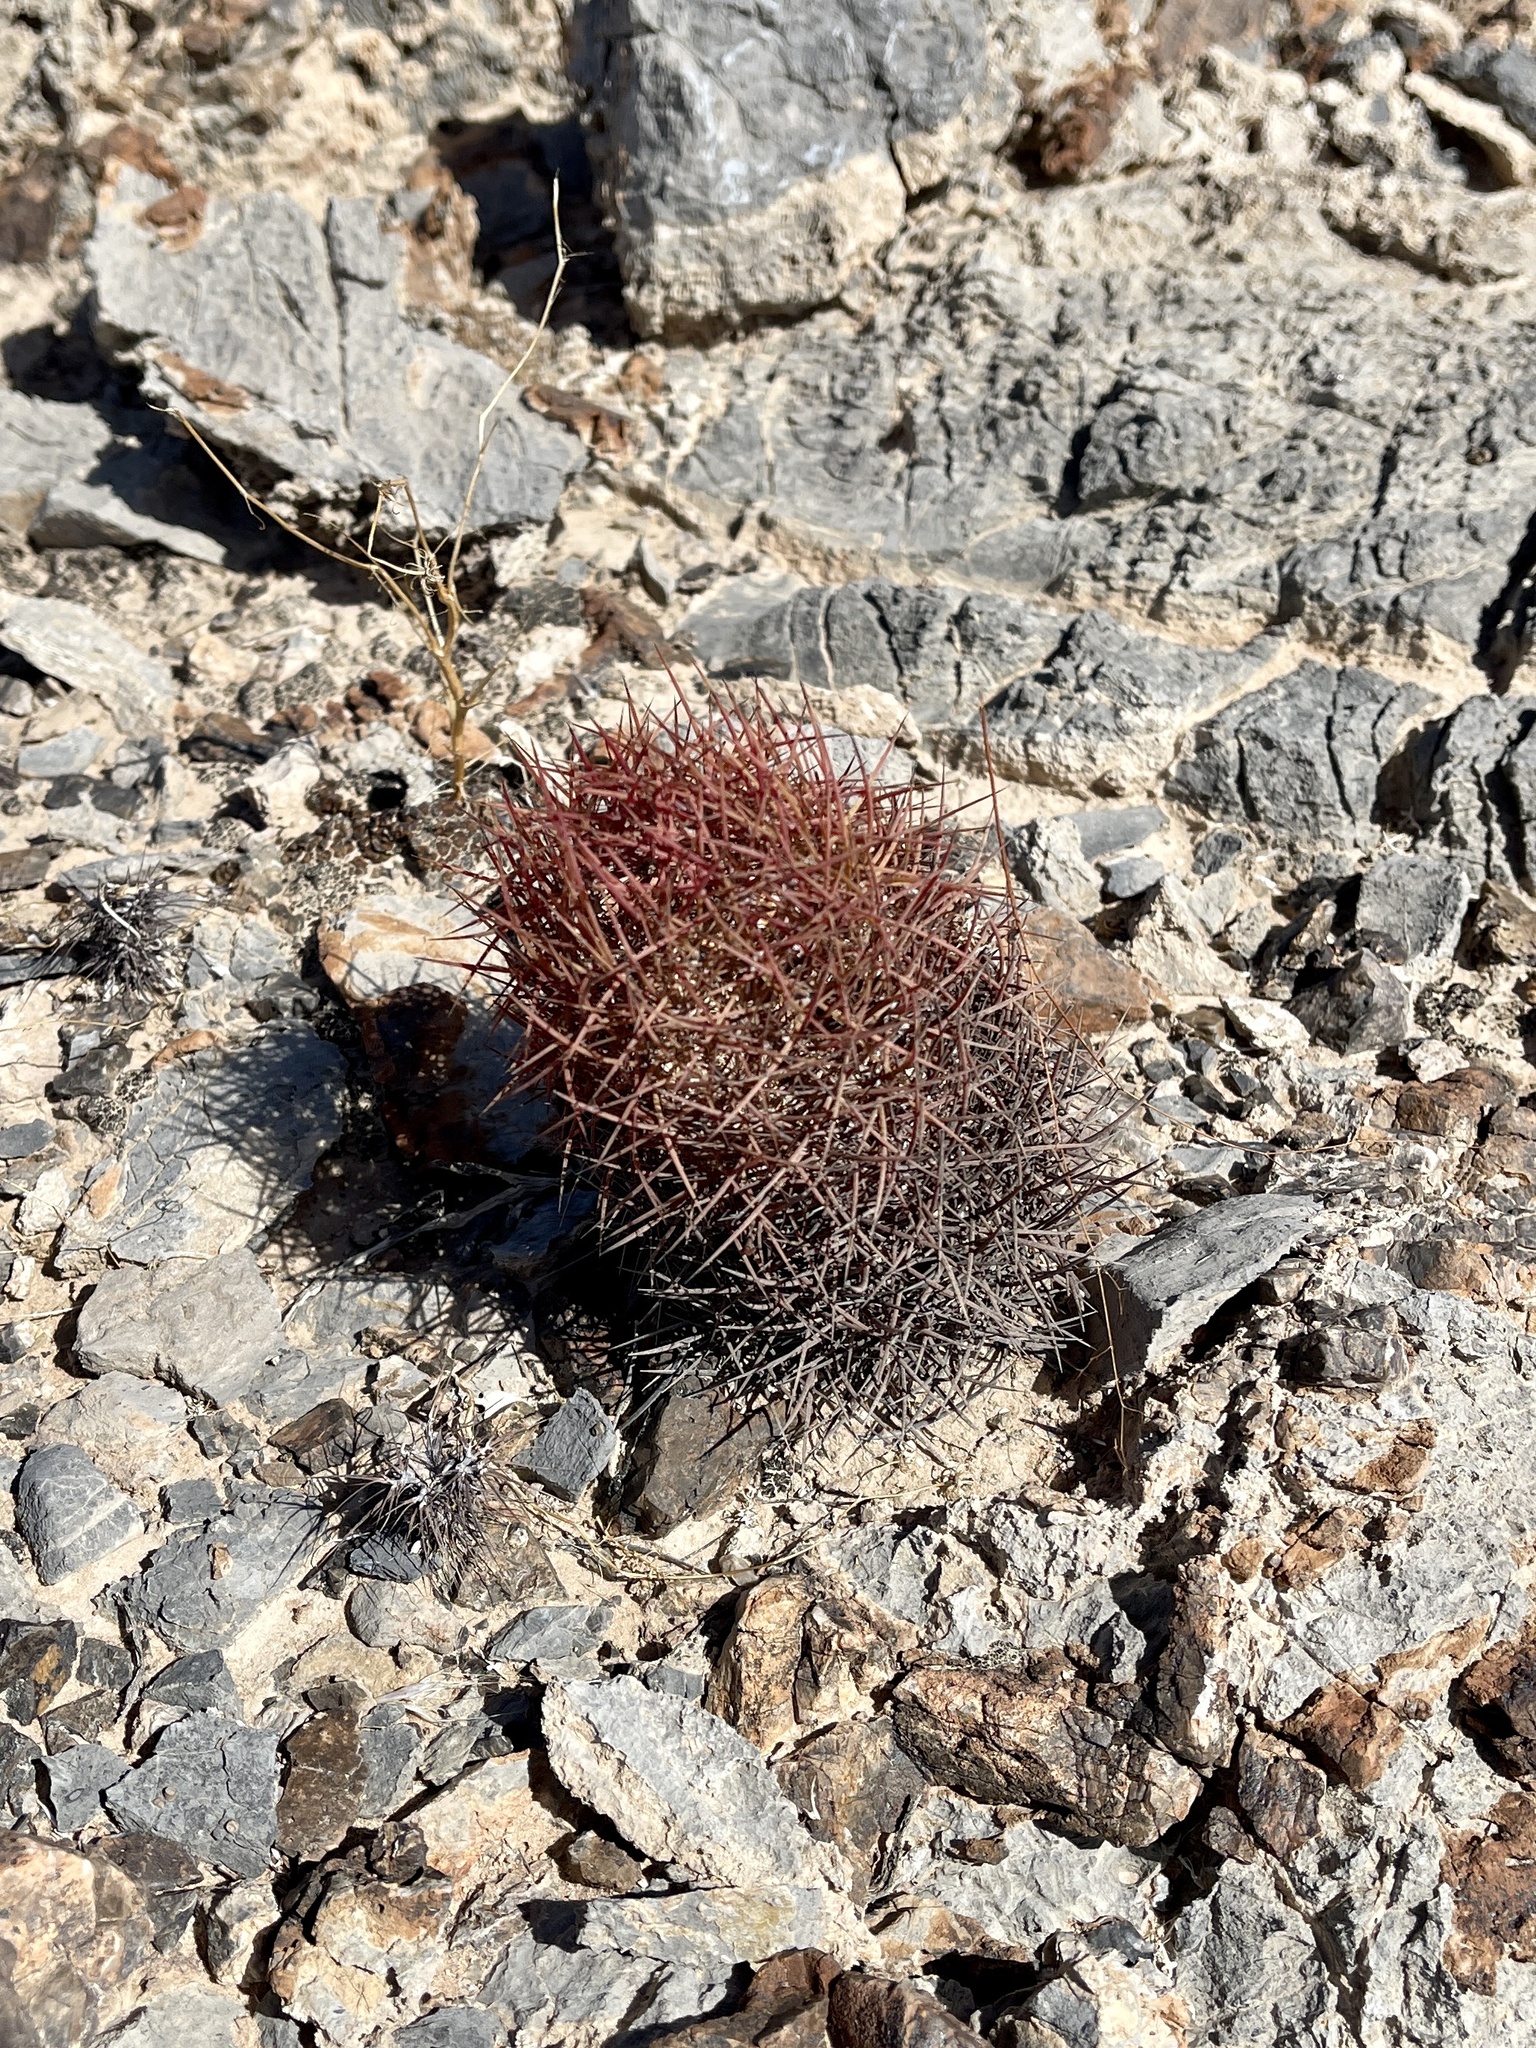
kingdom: Plantae
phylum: Tracheophyta
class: Magnoliopsida
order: Caryophyllales
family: Cactaceae
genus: Sclerocactus
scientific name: Sclerocactus johnsonii
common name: Eight-spine fishhook cactus
